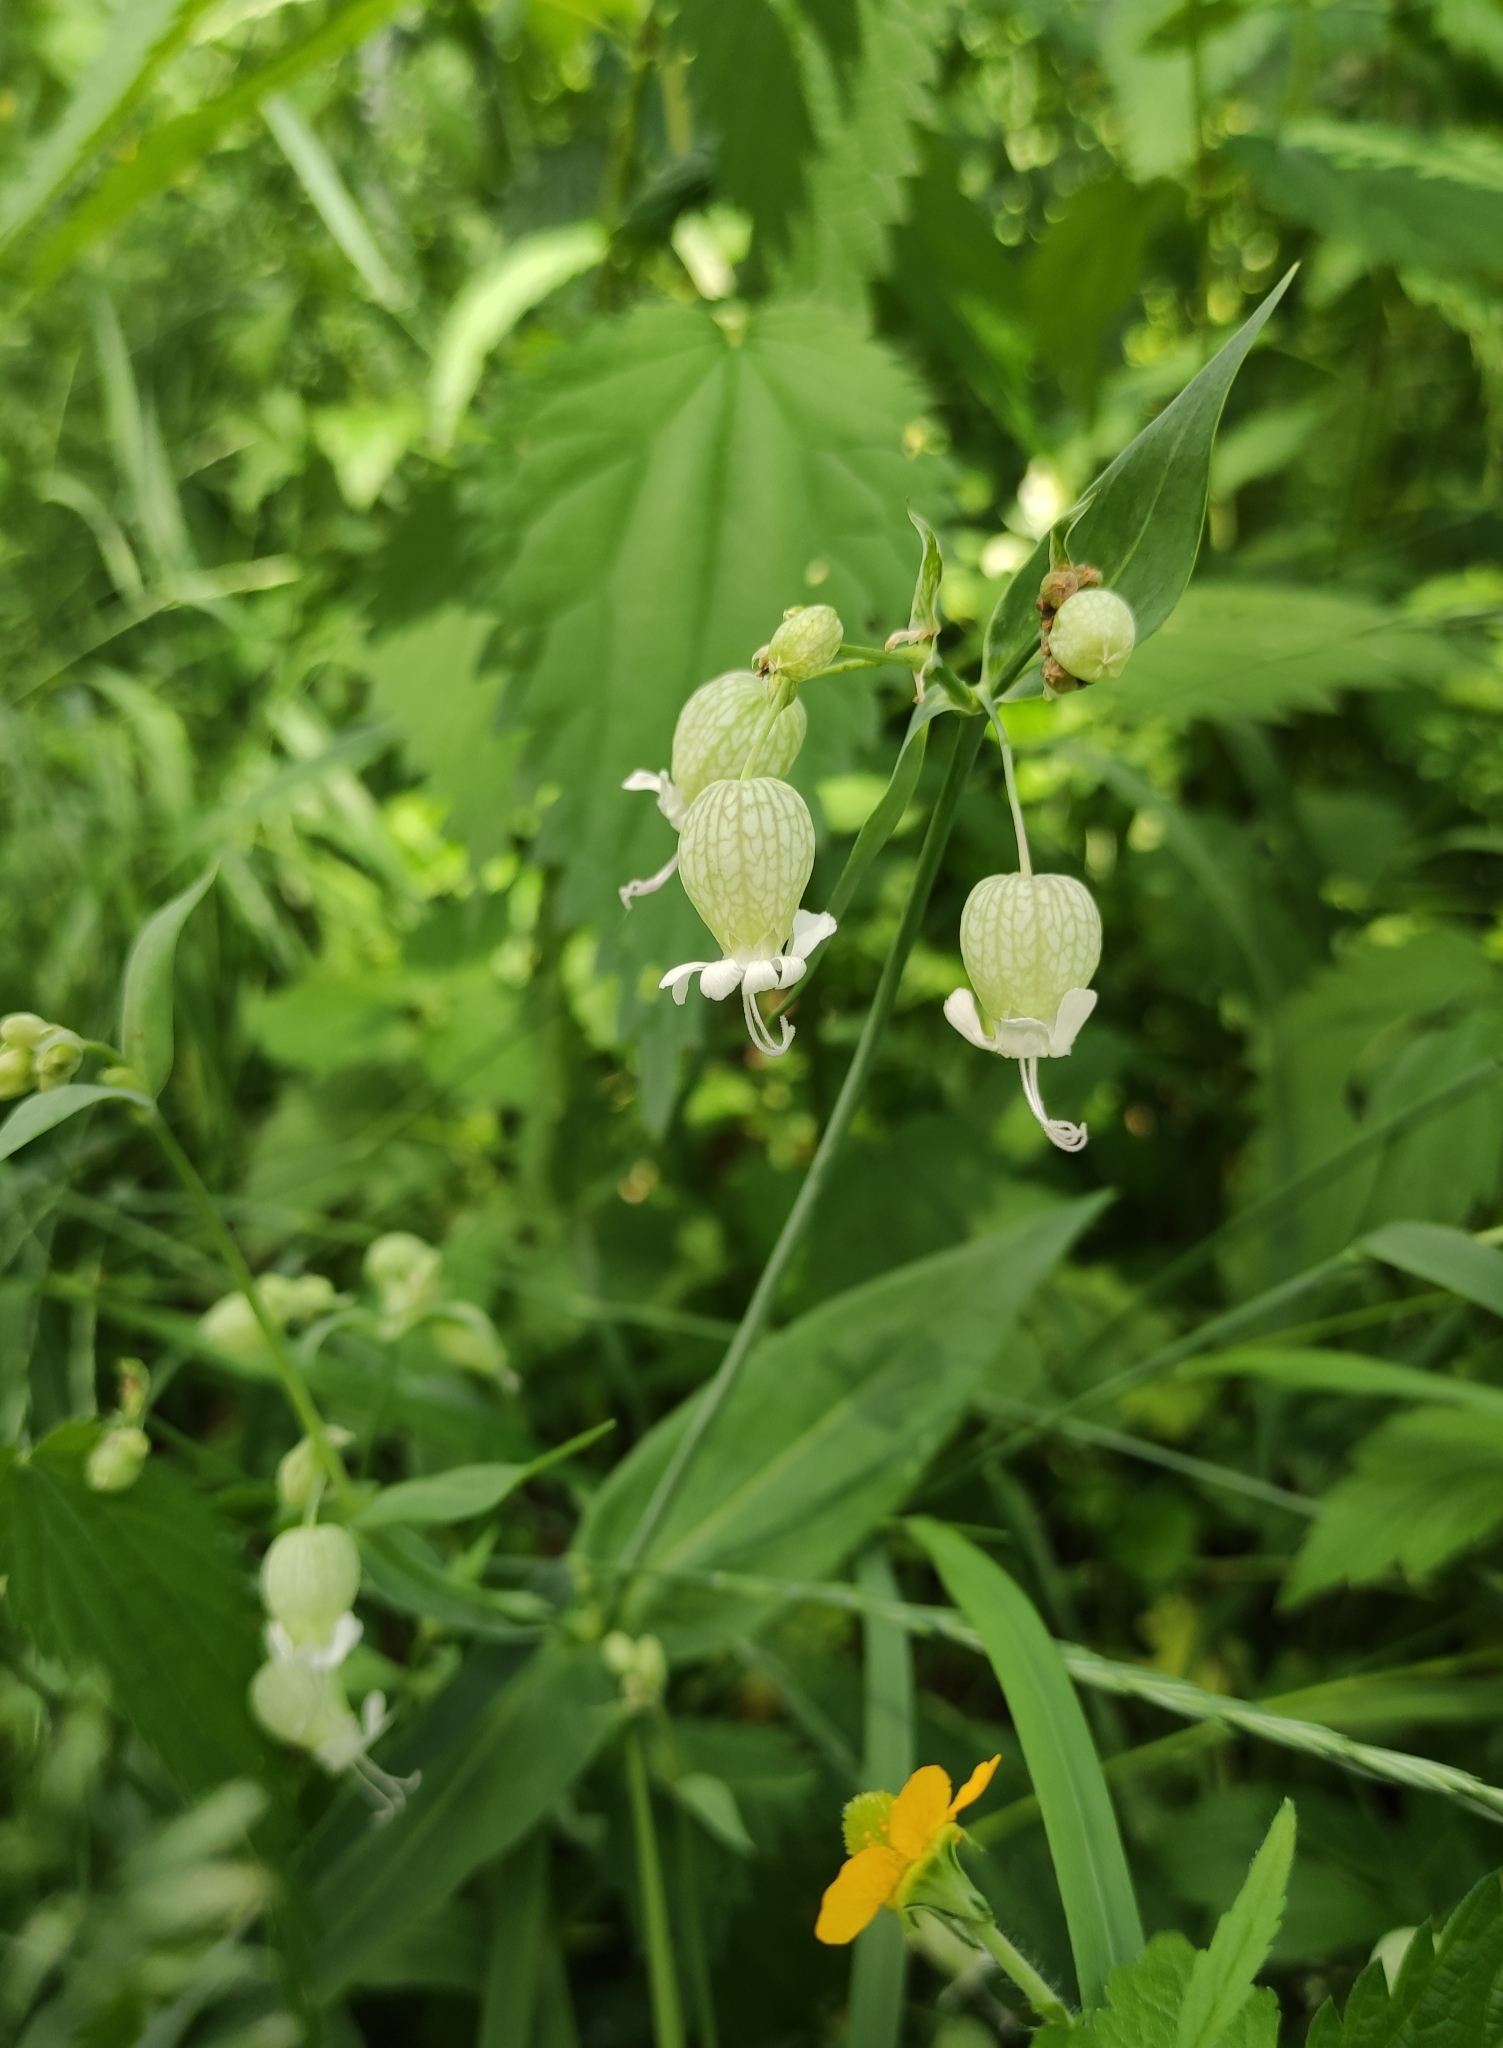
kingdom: Plantae
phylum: Tracheophyta
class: Magnoliopsida
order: Caryophyllales
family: Caryophyllaceae
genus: Silene
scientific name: Silene vulgaris
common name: Bladder campion
